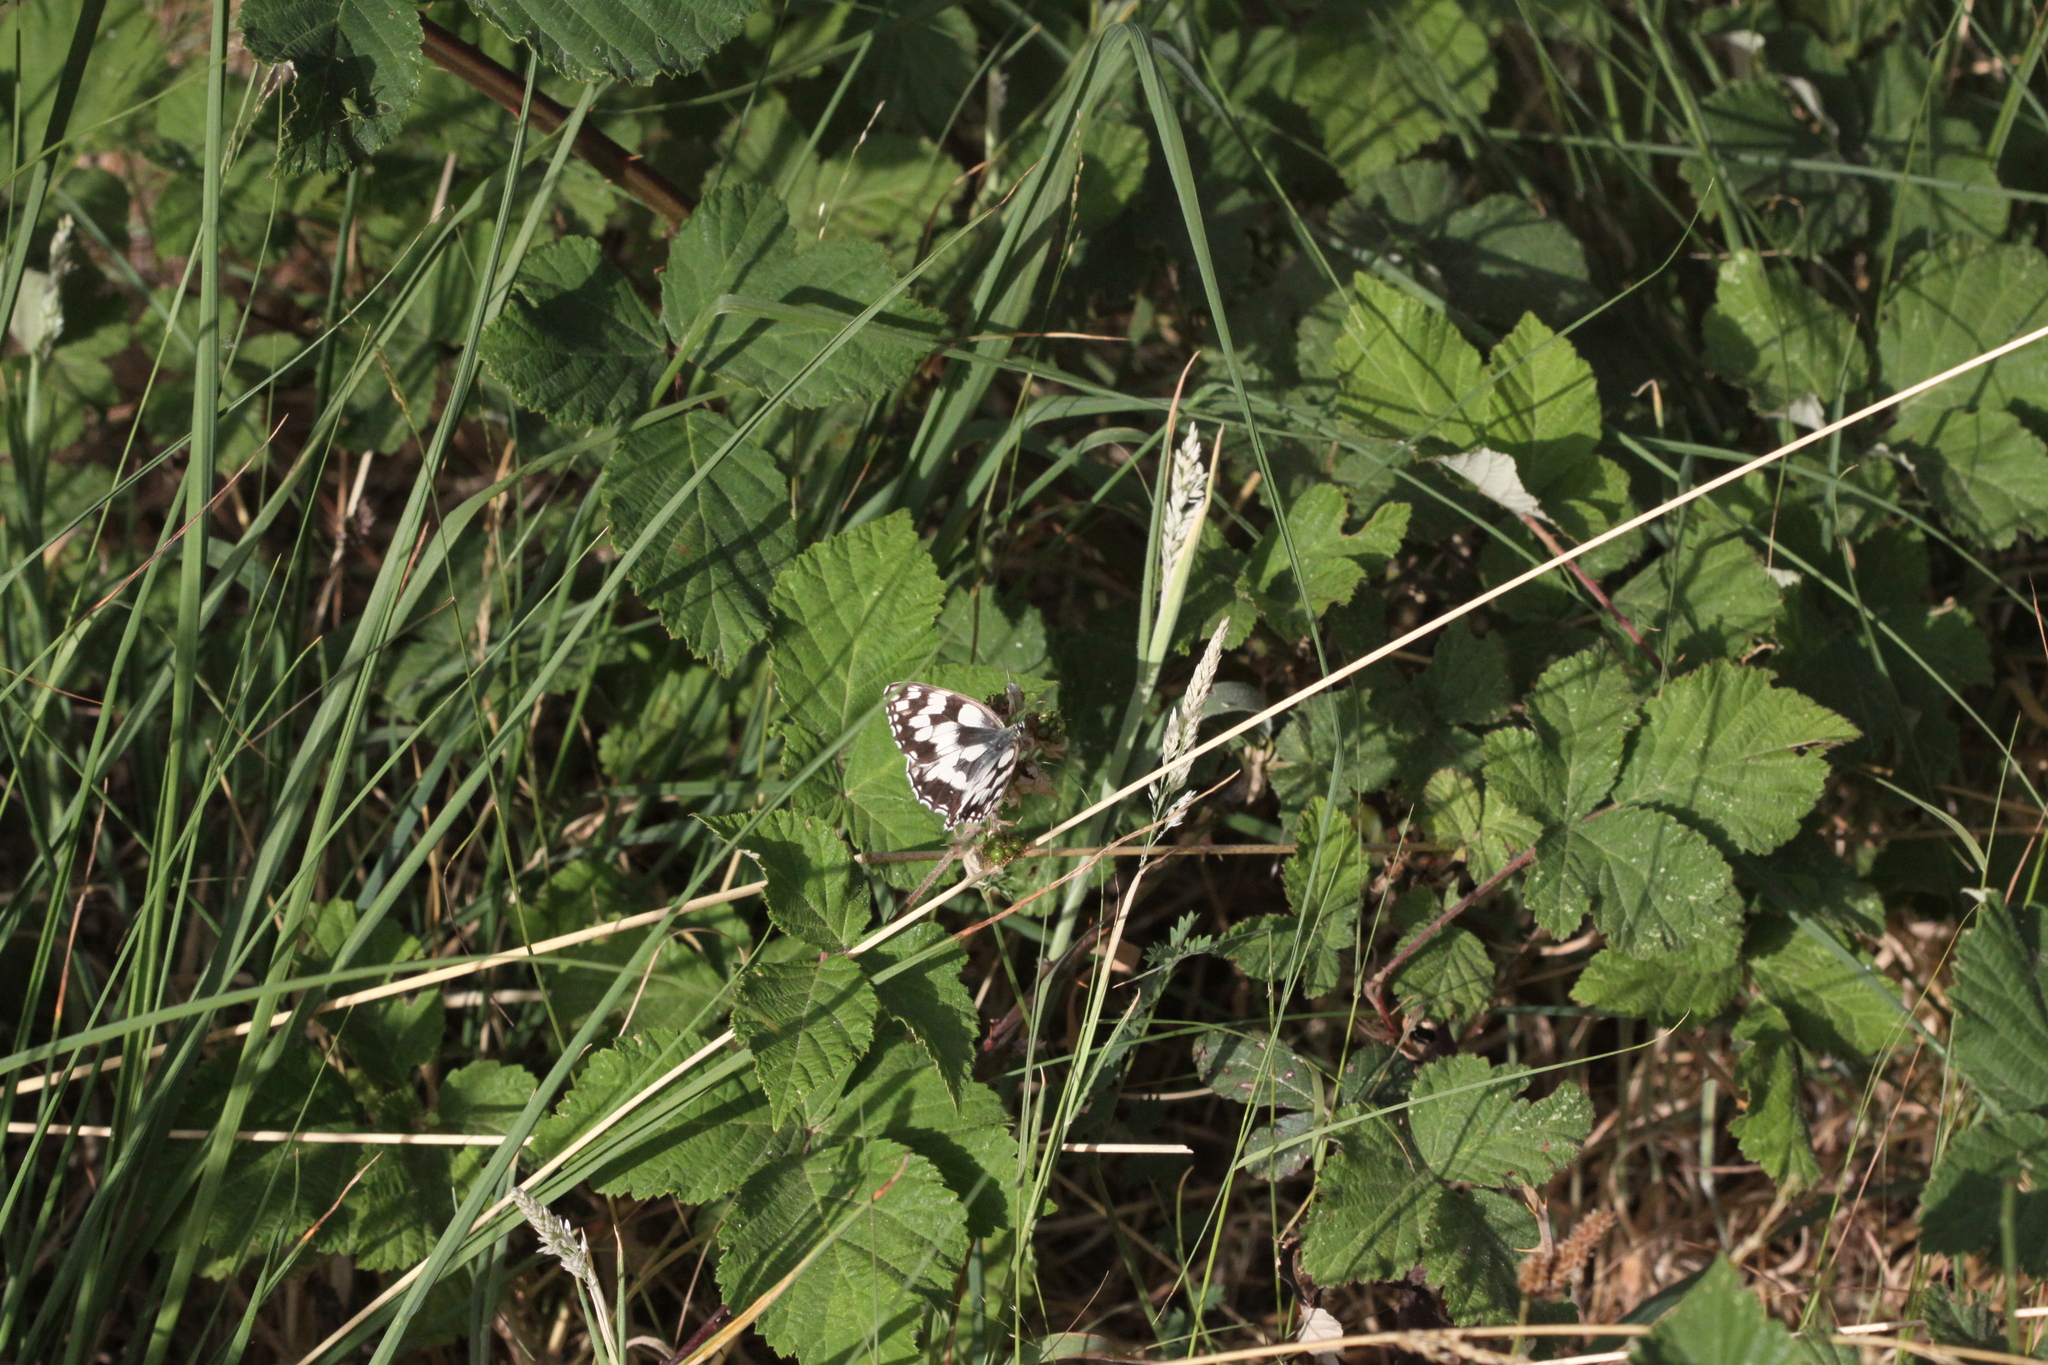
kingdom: Animalia
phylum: Arthropoda
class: Insecta
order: Lepidoptera
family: Nymphalidae
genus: Melanargia
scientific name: Melanargia galathea
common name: Marbled white
